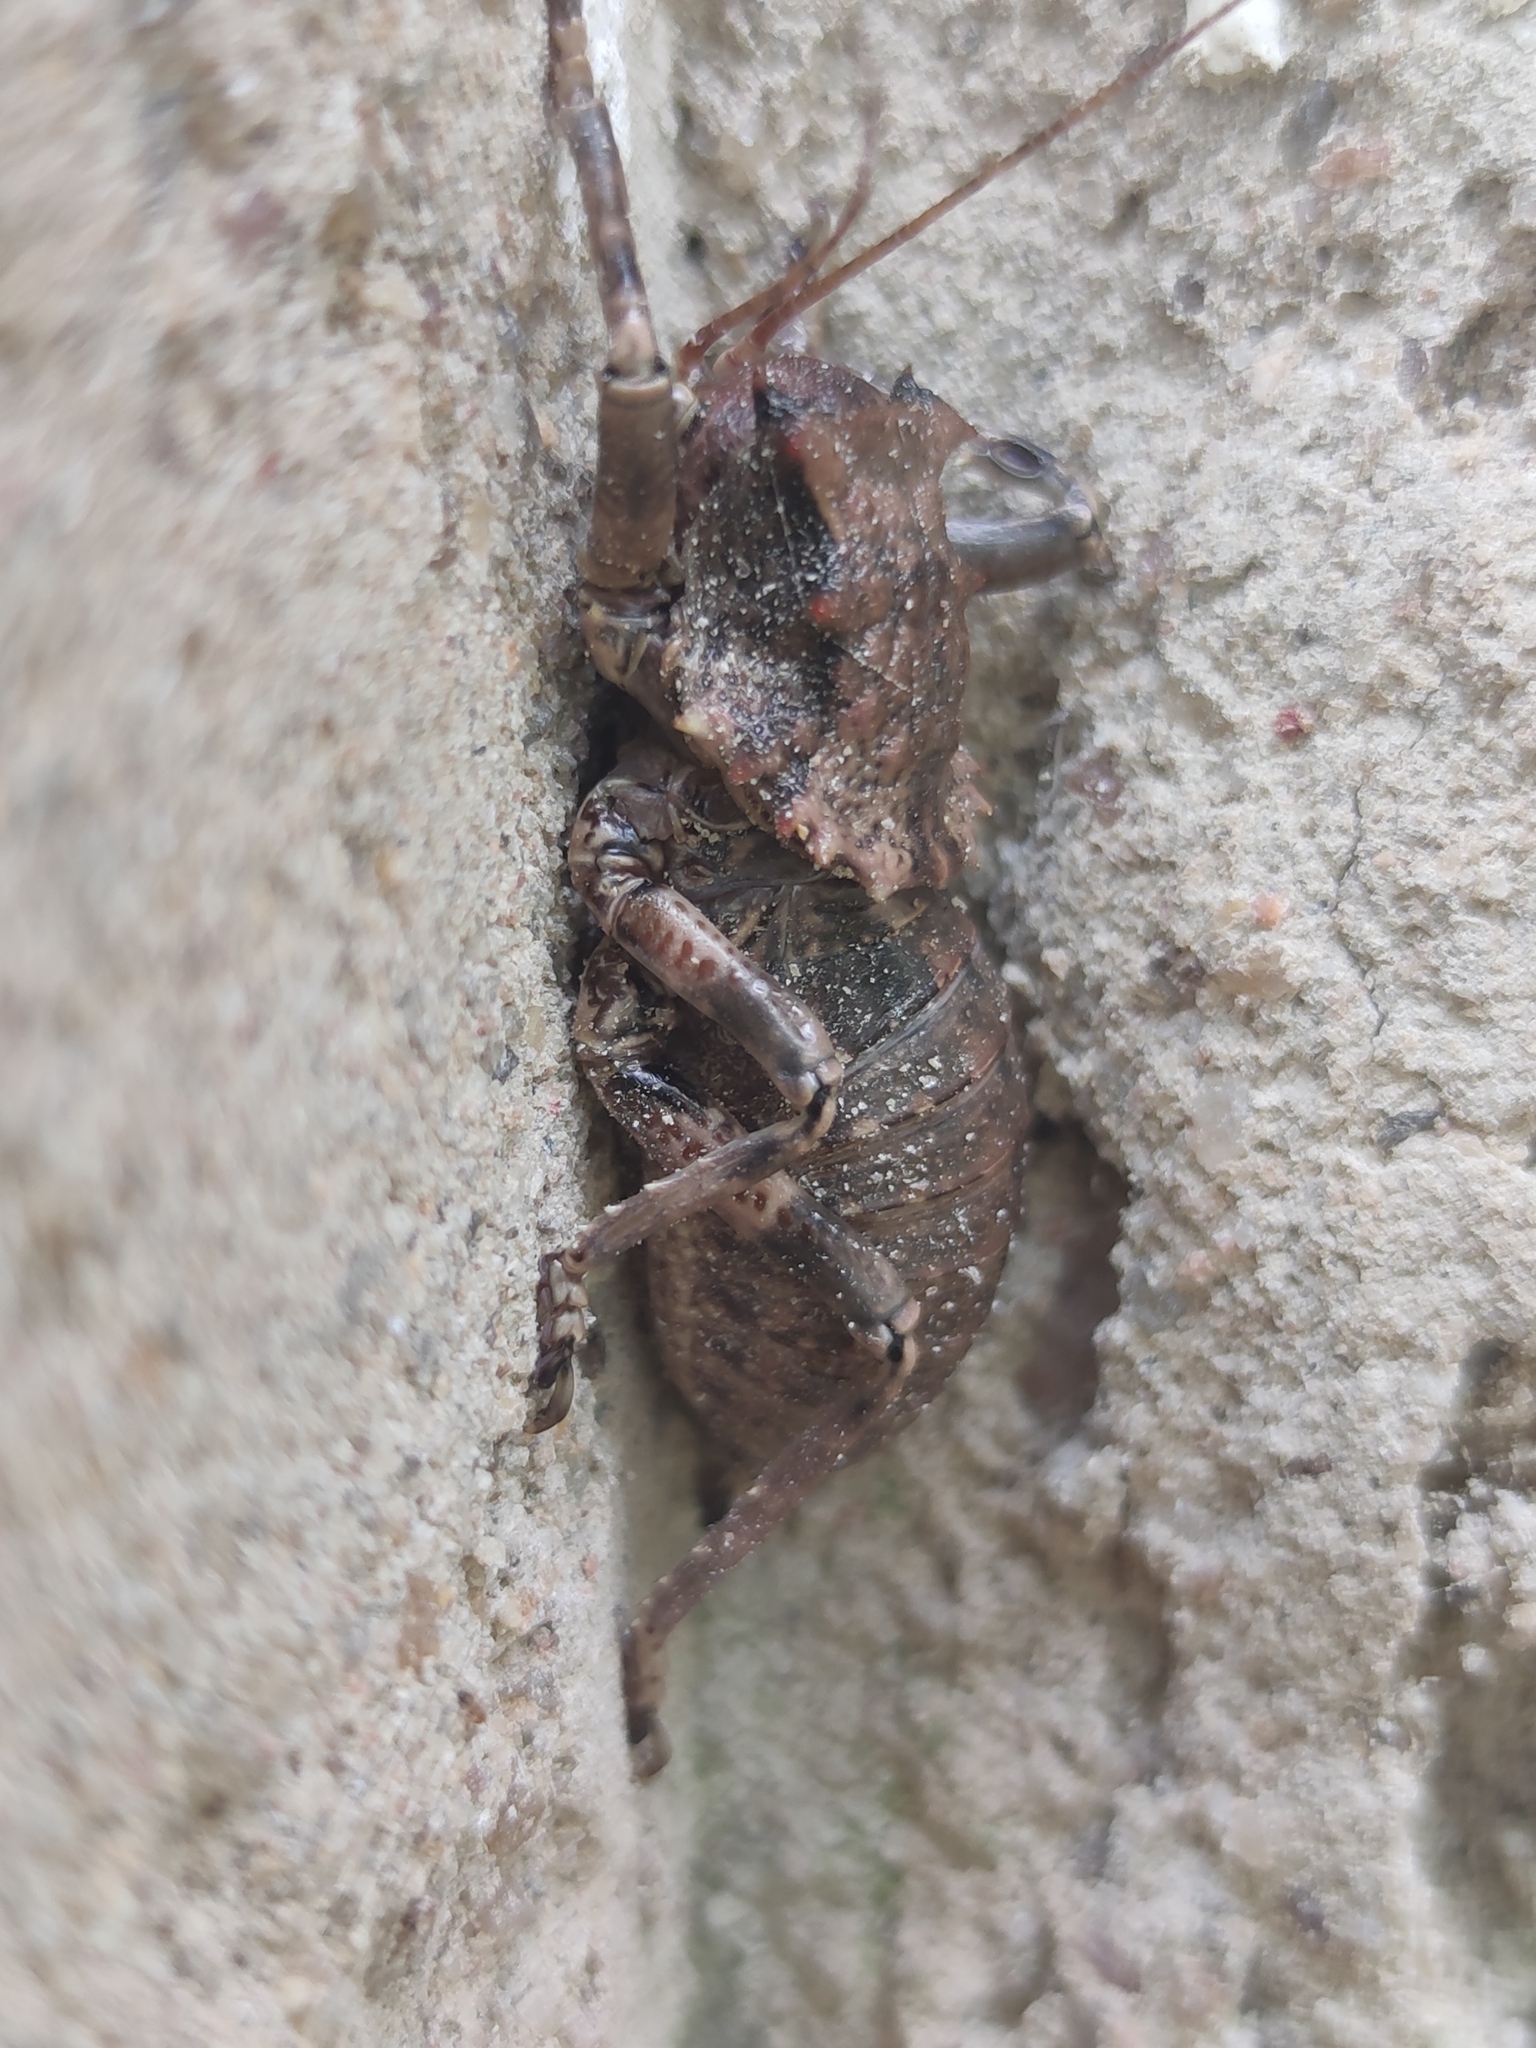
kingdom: Animalia
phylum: Arthropoda
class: Insecta
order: Orthoptera
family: Tettigoniidae
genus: Enyaliopsis
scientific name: Enyaliopsis carolinus
